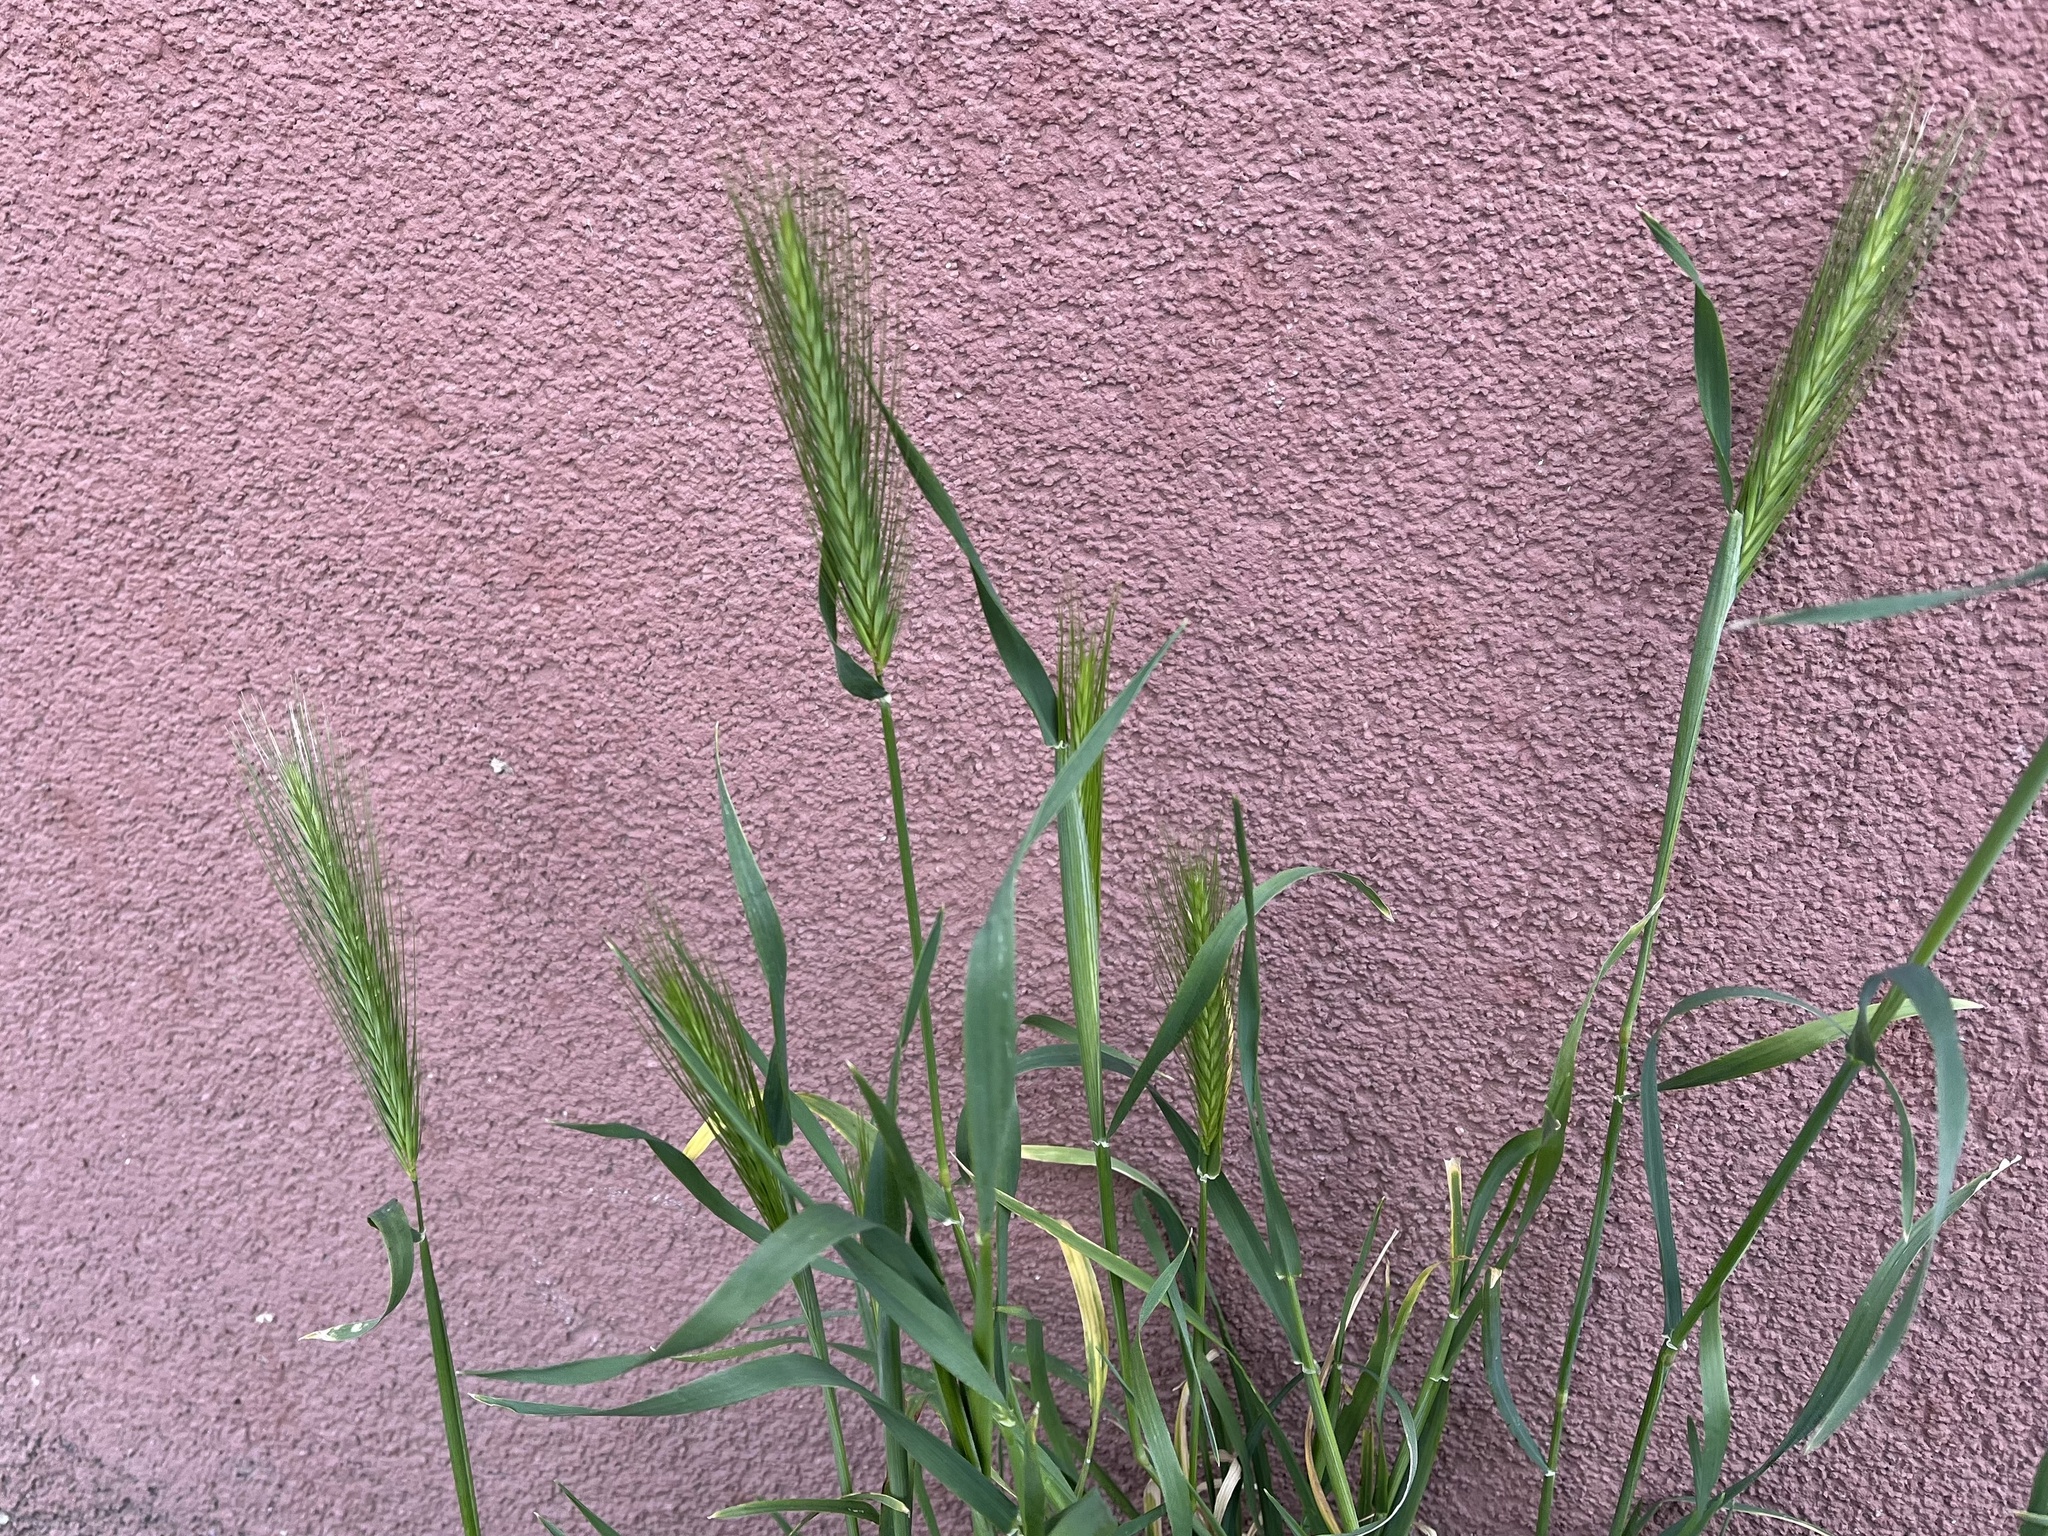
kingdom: Plantae
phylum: Tracheophyta
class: Liliopsida
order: Poales
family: Poaceae
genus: Hordeum
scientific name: Hordeum murinum
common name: Wall barley
